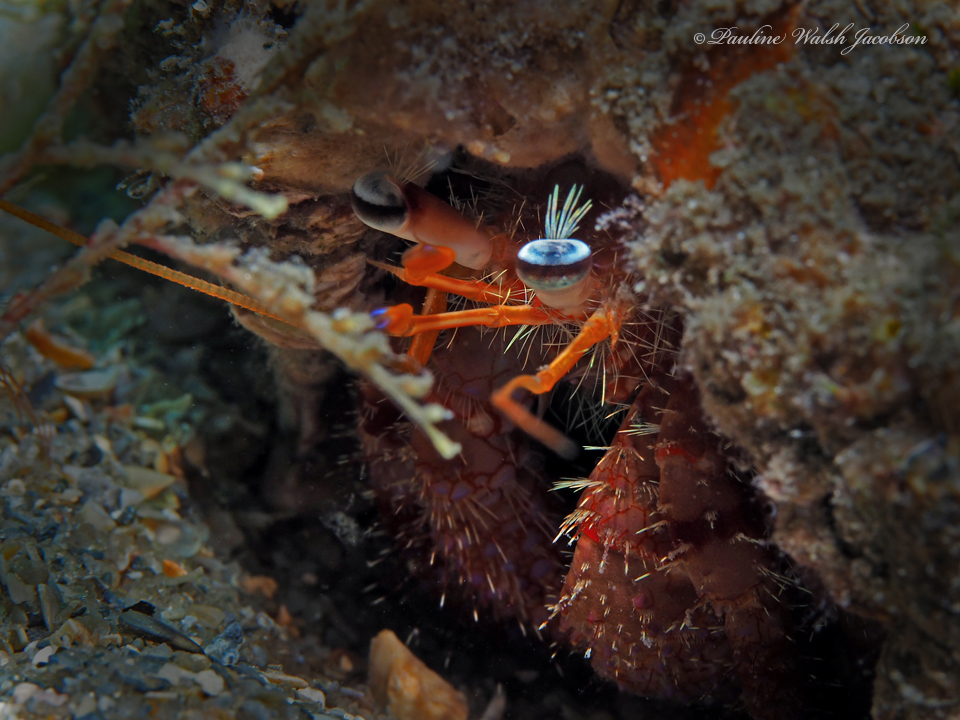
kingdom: Animalia
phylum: Arthropoda
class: Malacostraca
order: Decapoda
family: Diogenidae
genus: Dardanus
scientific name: Dardanus fucosus
